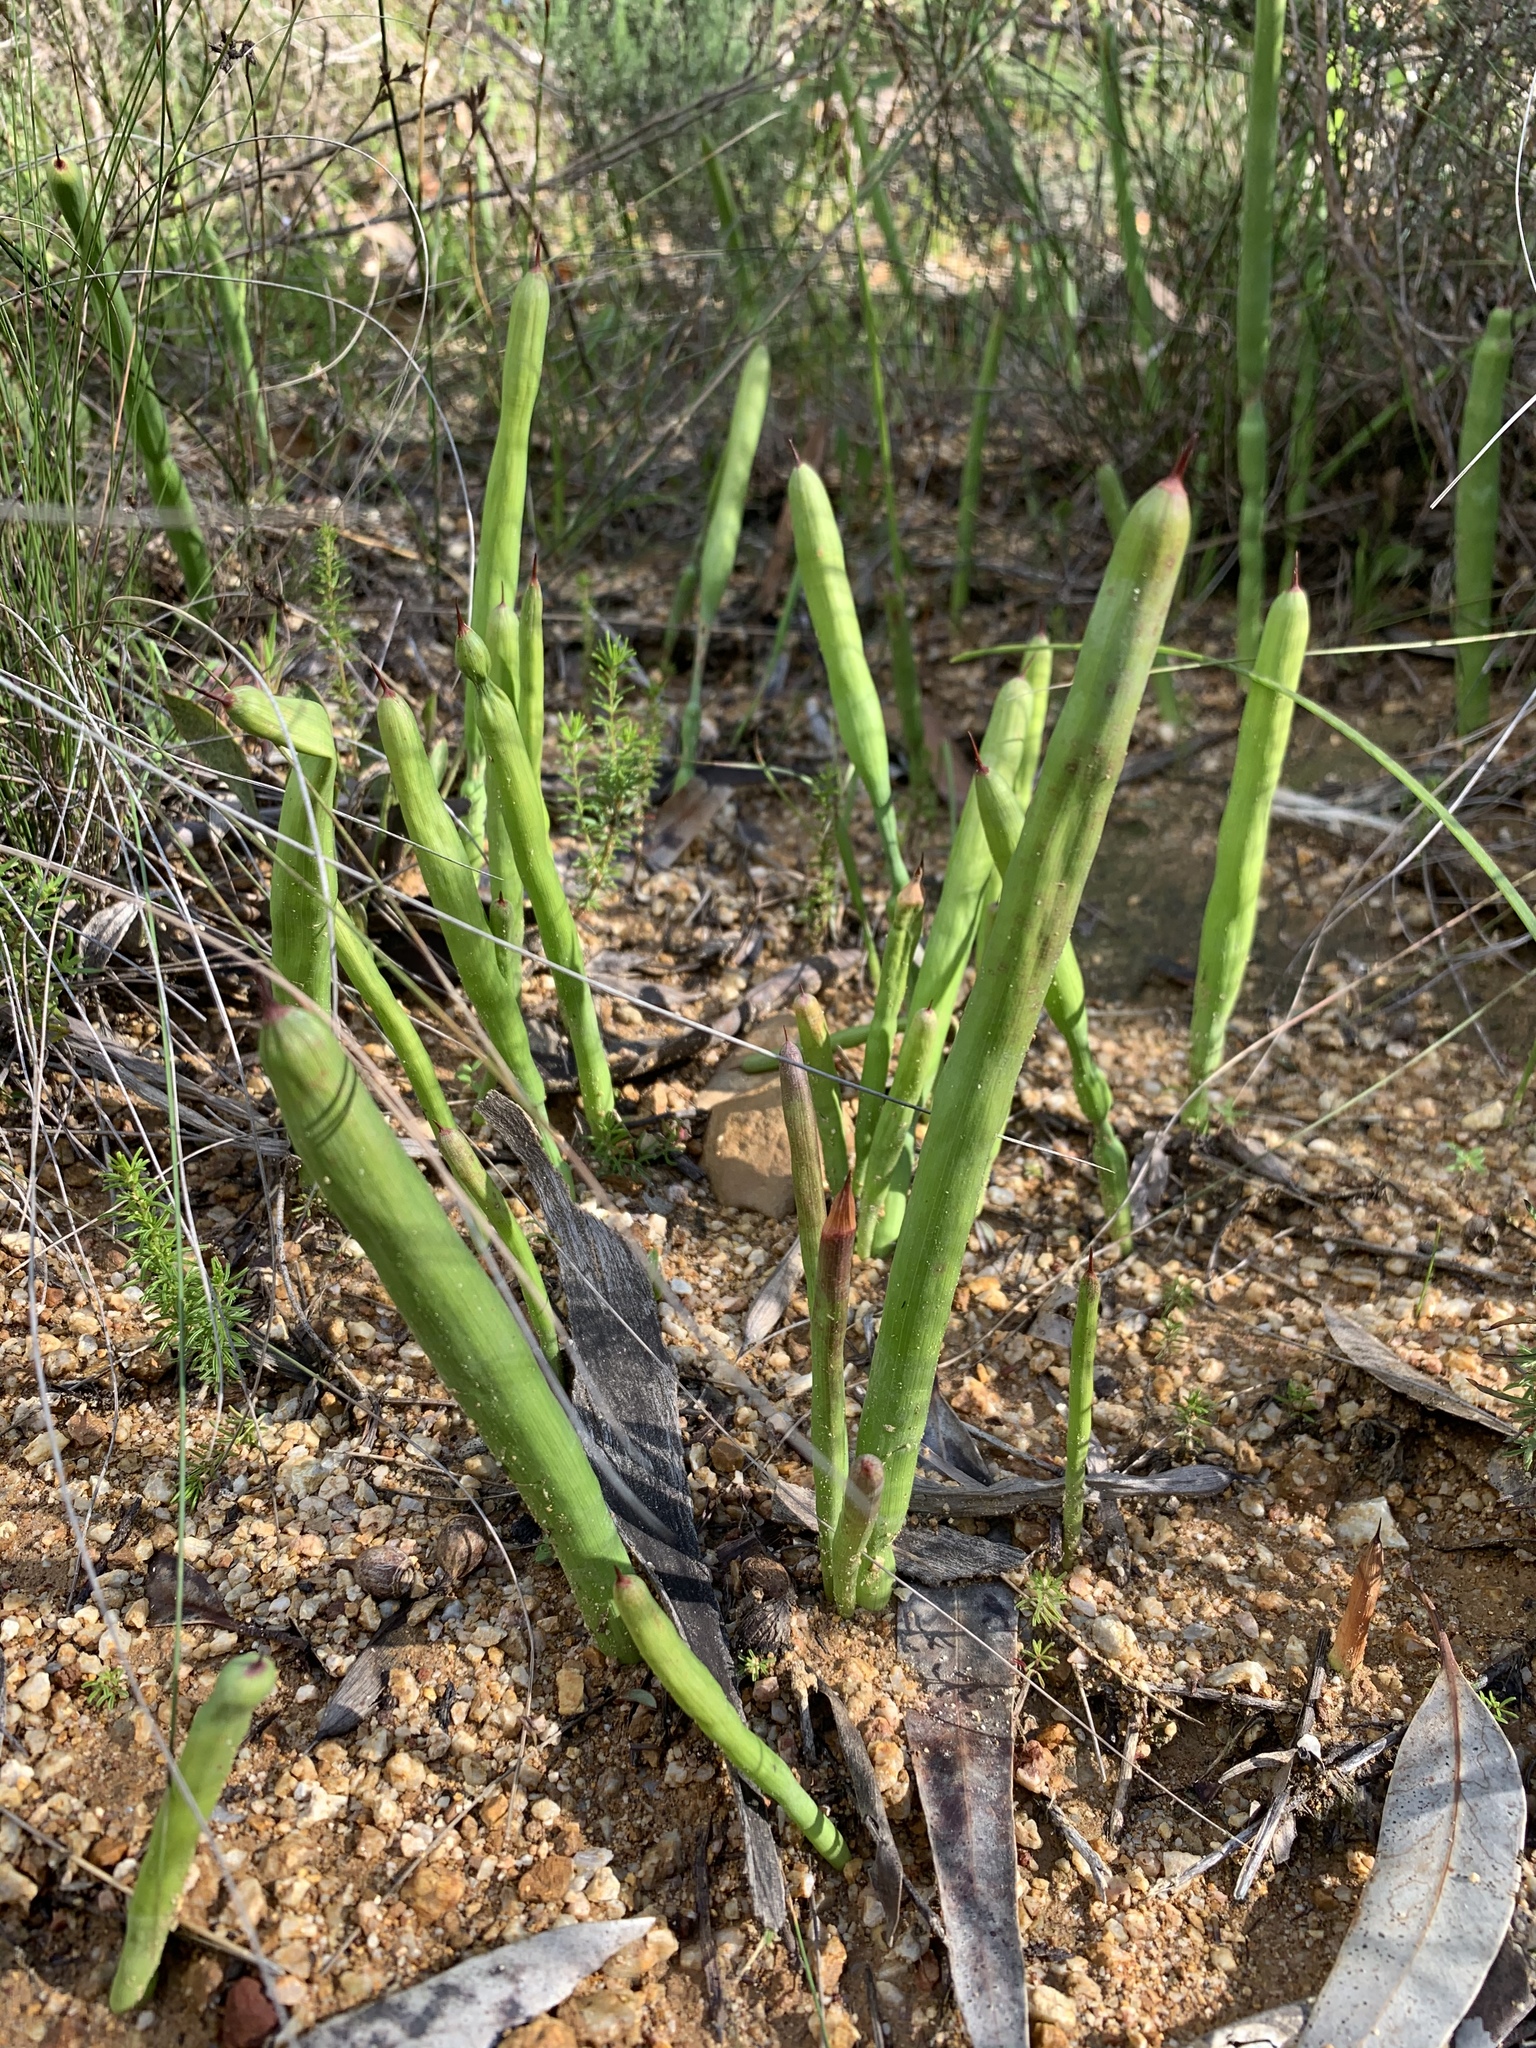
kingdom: Plantae
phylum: Tracheophyta
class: Liliopsida
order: Asparagales
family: Iridaceae
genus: Micranthus
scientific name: Micranthus tubulosus
